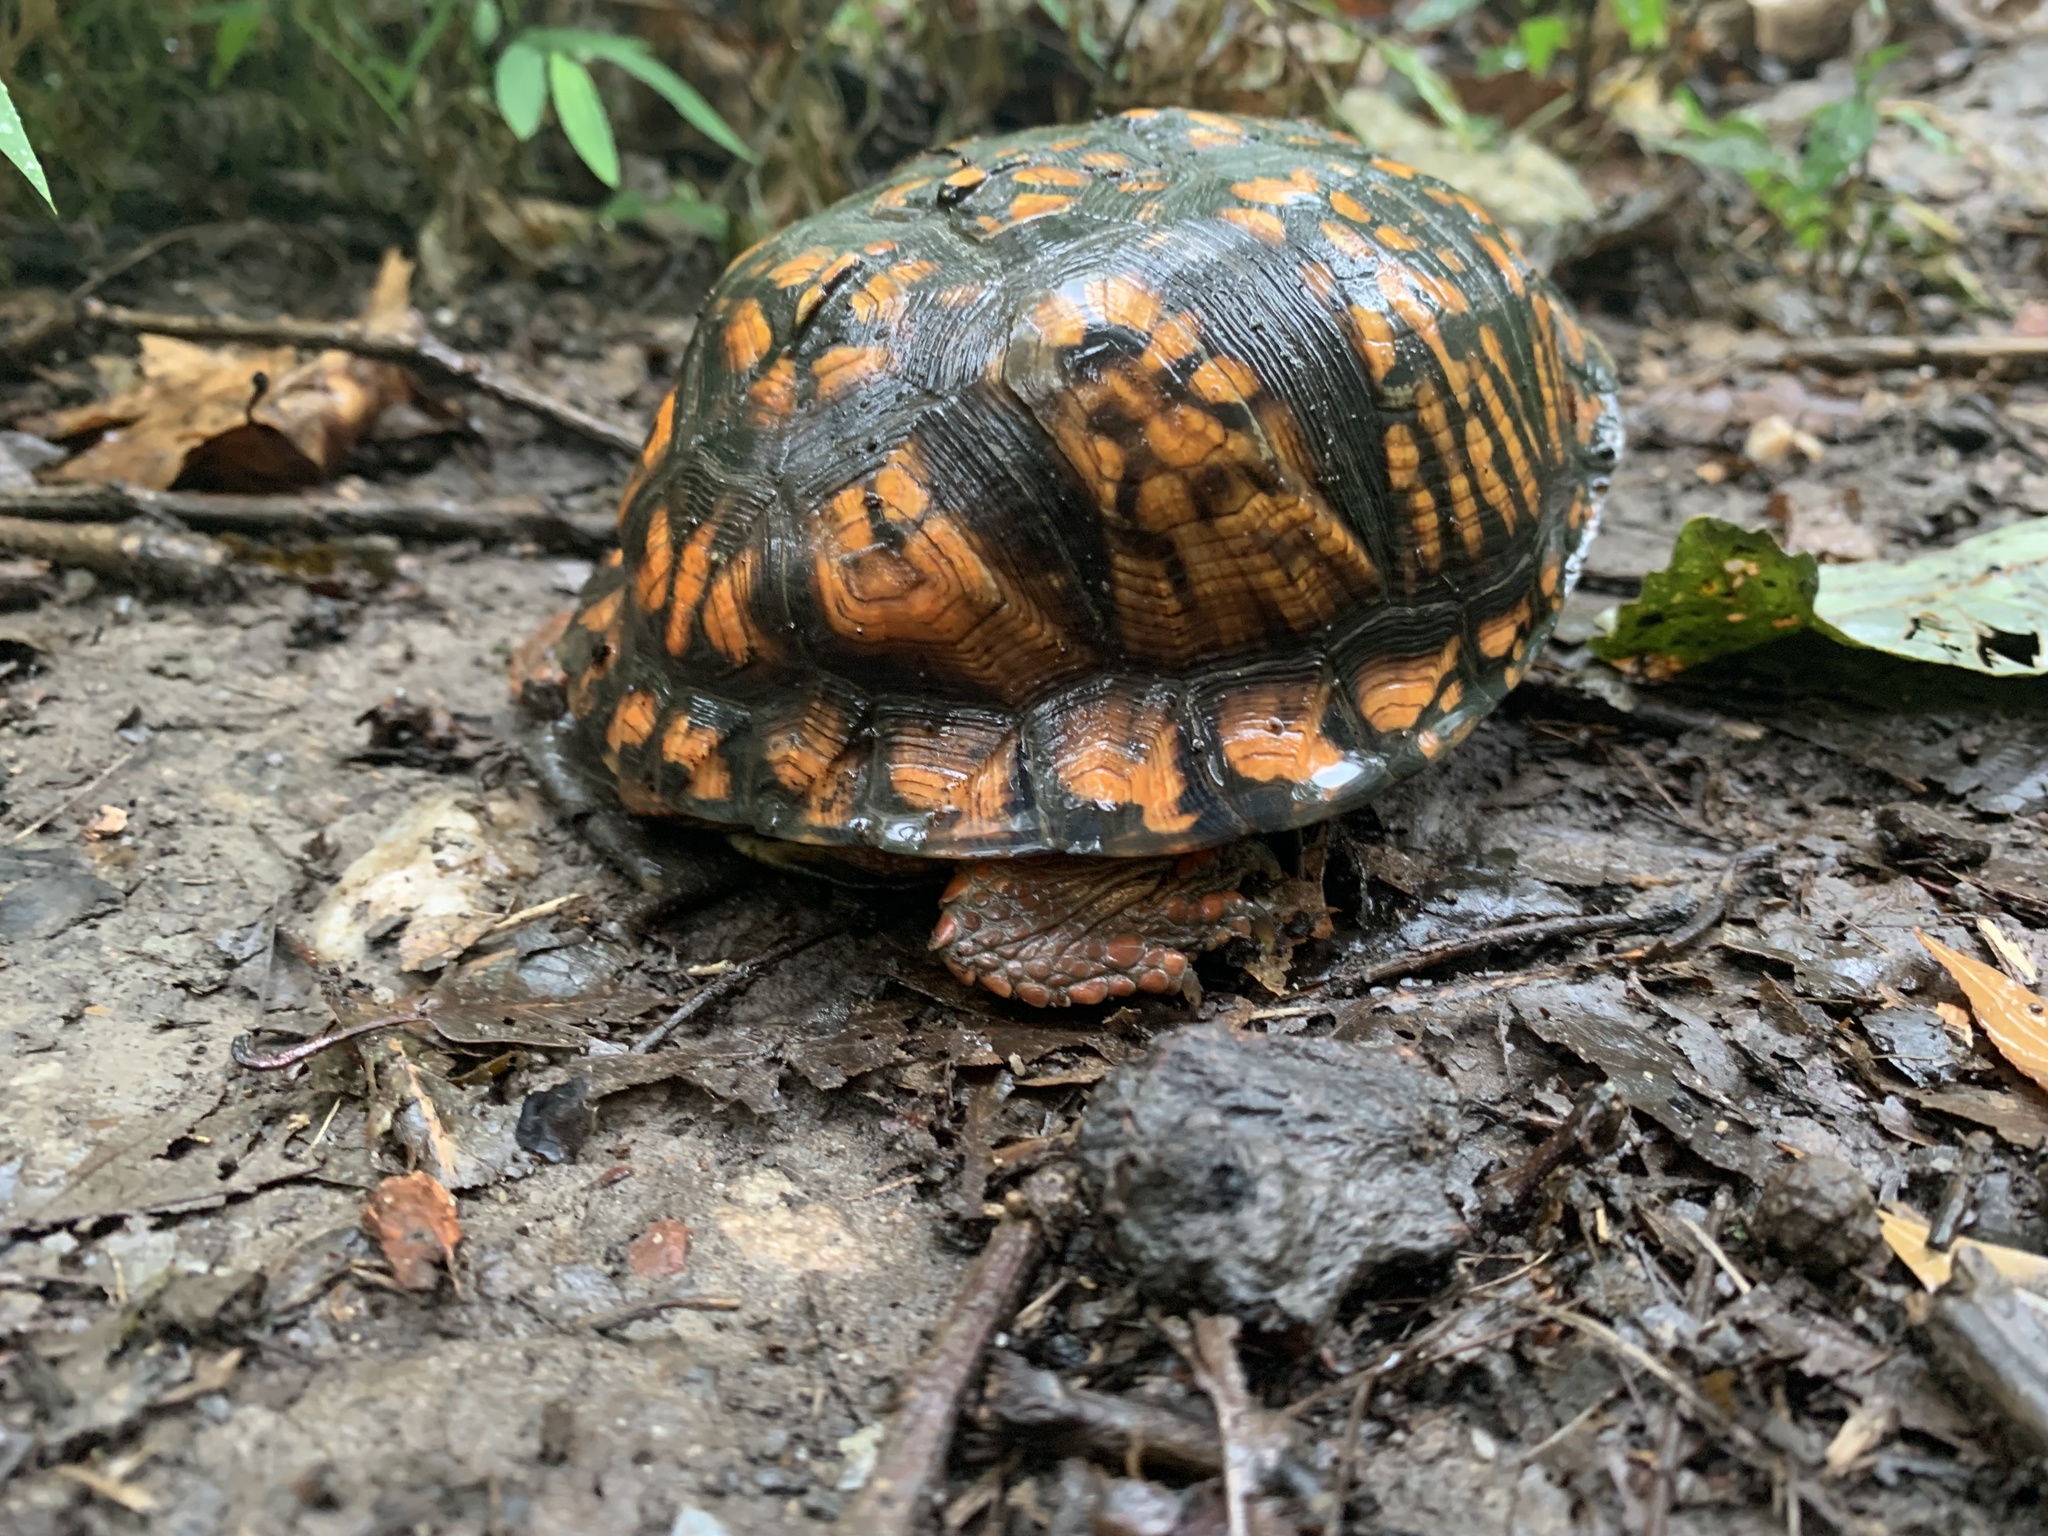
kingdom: Animalia
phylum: Chordata
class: Testudines
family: Emydidae
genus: Terrapene
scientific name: Terrapene carolina
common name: Common box turtle
